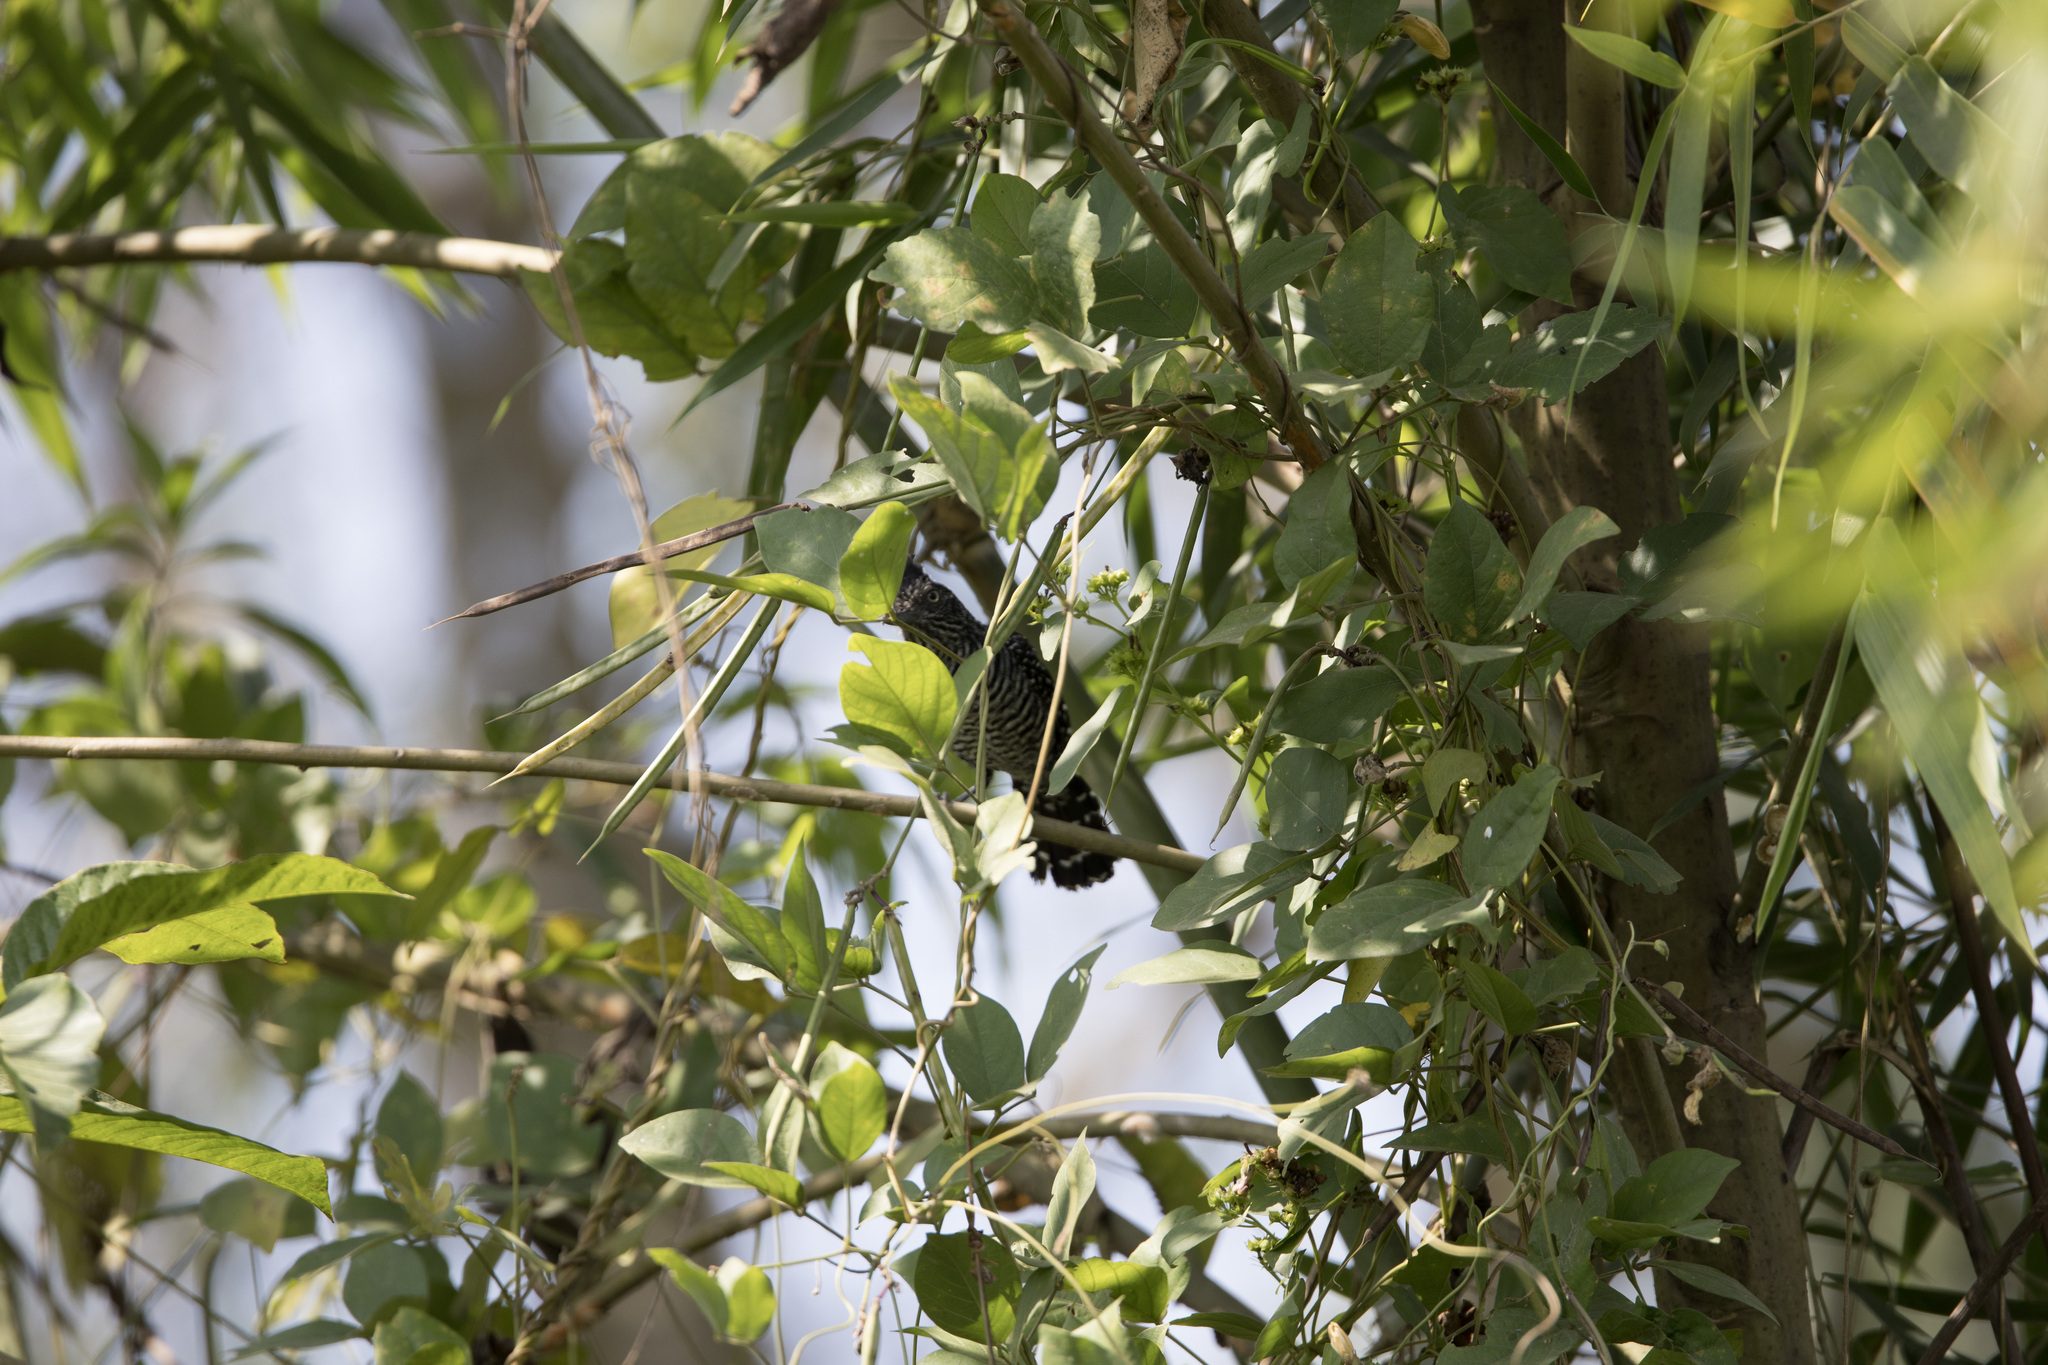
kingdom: Animalia
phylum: Chordata
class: Aves
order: Passeriformes
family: Thamnophilidae
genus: Thamnophilus
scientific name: Thamnophilus doliatus
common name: Barred antshrike
